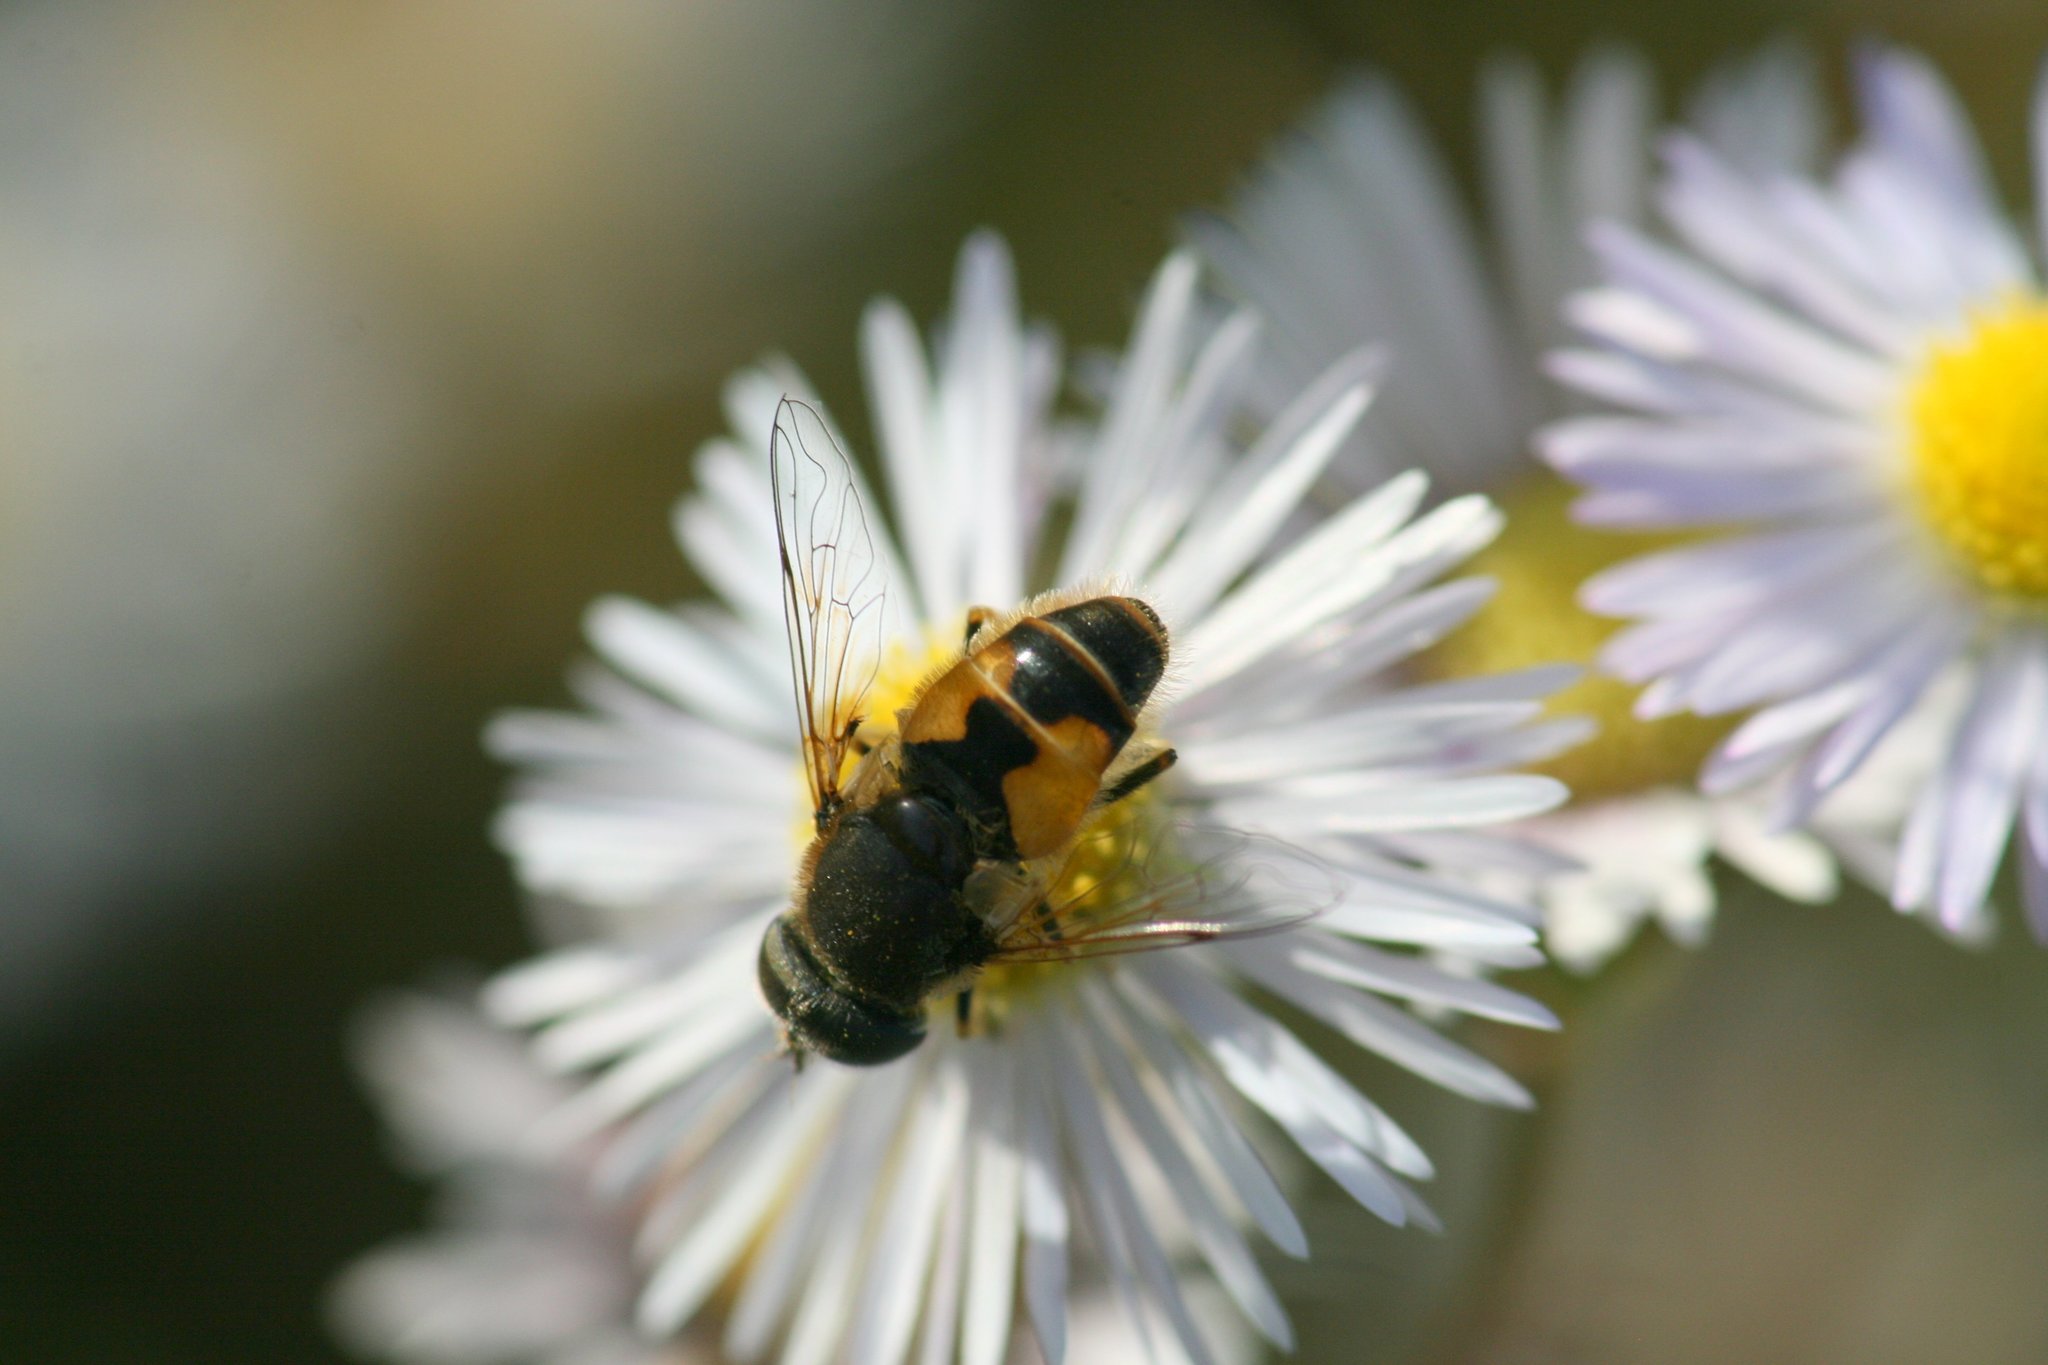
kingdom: Animalia
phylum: Arthropoda
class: Insecta
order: Diptera
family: Syrphidae
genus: Eristalis
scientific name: Eristalis arbustorum
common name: Hover fly
